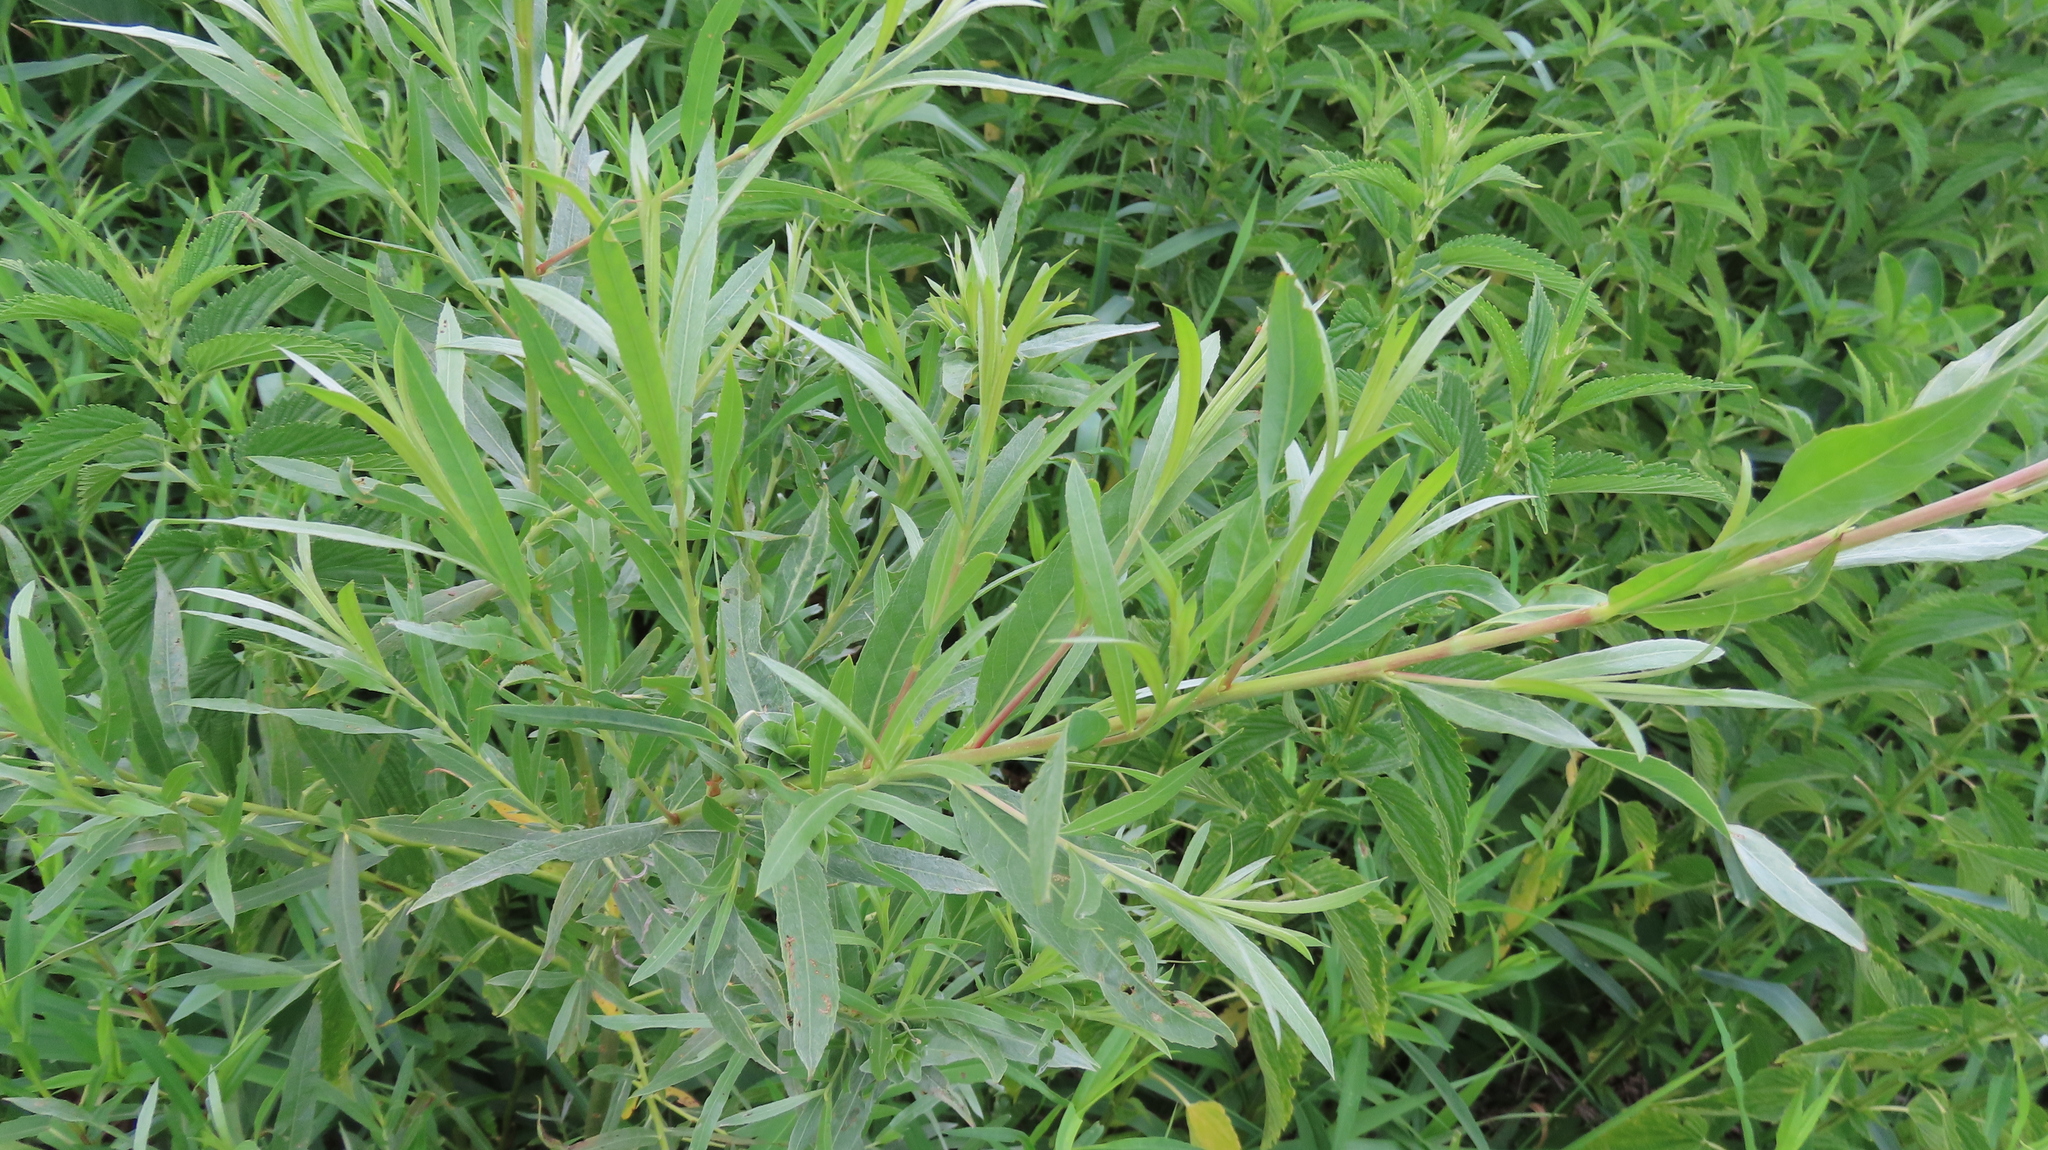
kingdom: Plantae
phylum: Tracheophyta
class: Magnoliopsida
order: Malpighiales
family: Salicaceae
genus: Salix
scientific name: Salix interior
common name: Sandbar willow
